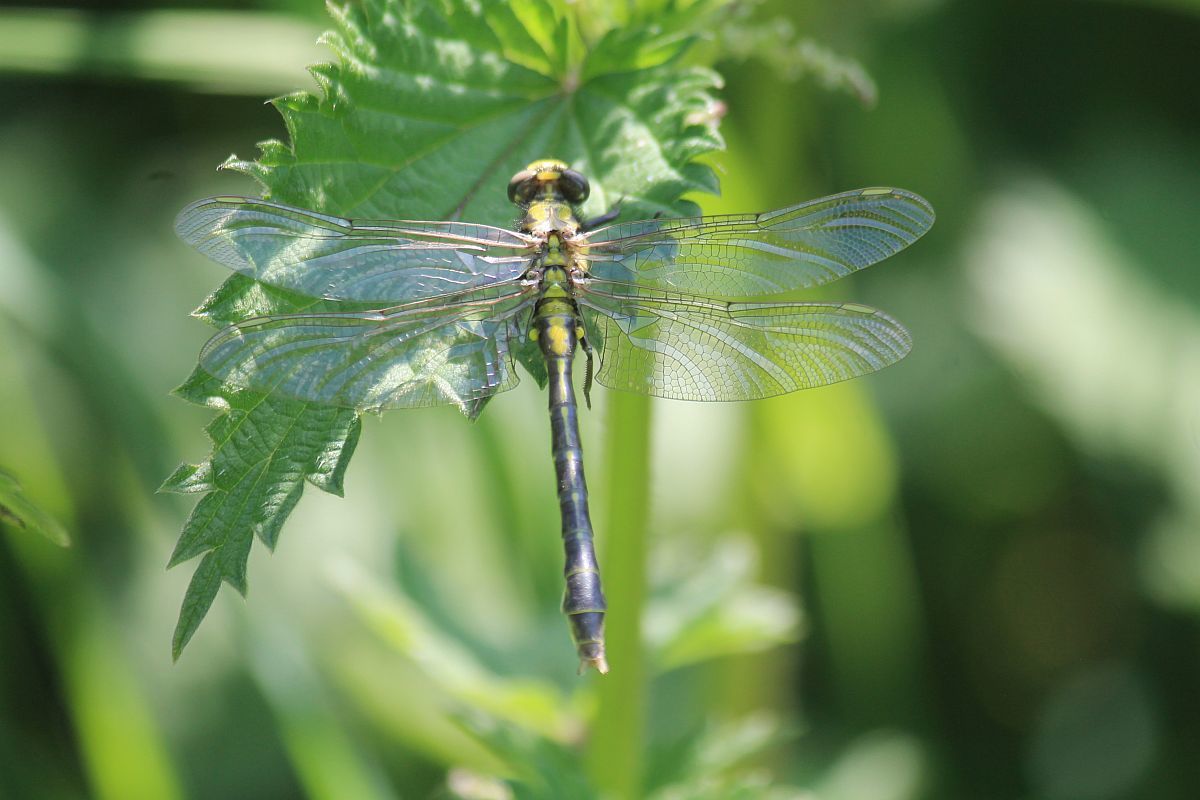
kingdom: Animalia
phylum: Arthropoda
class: Insecta
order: Odonata
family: Gomphidae
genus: Gomphus
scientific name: Gomphus vulgatissimus
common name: Club-tailed dragonfly
